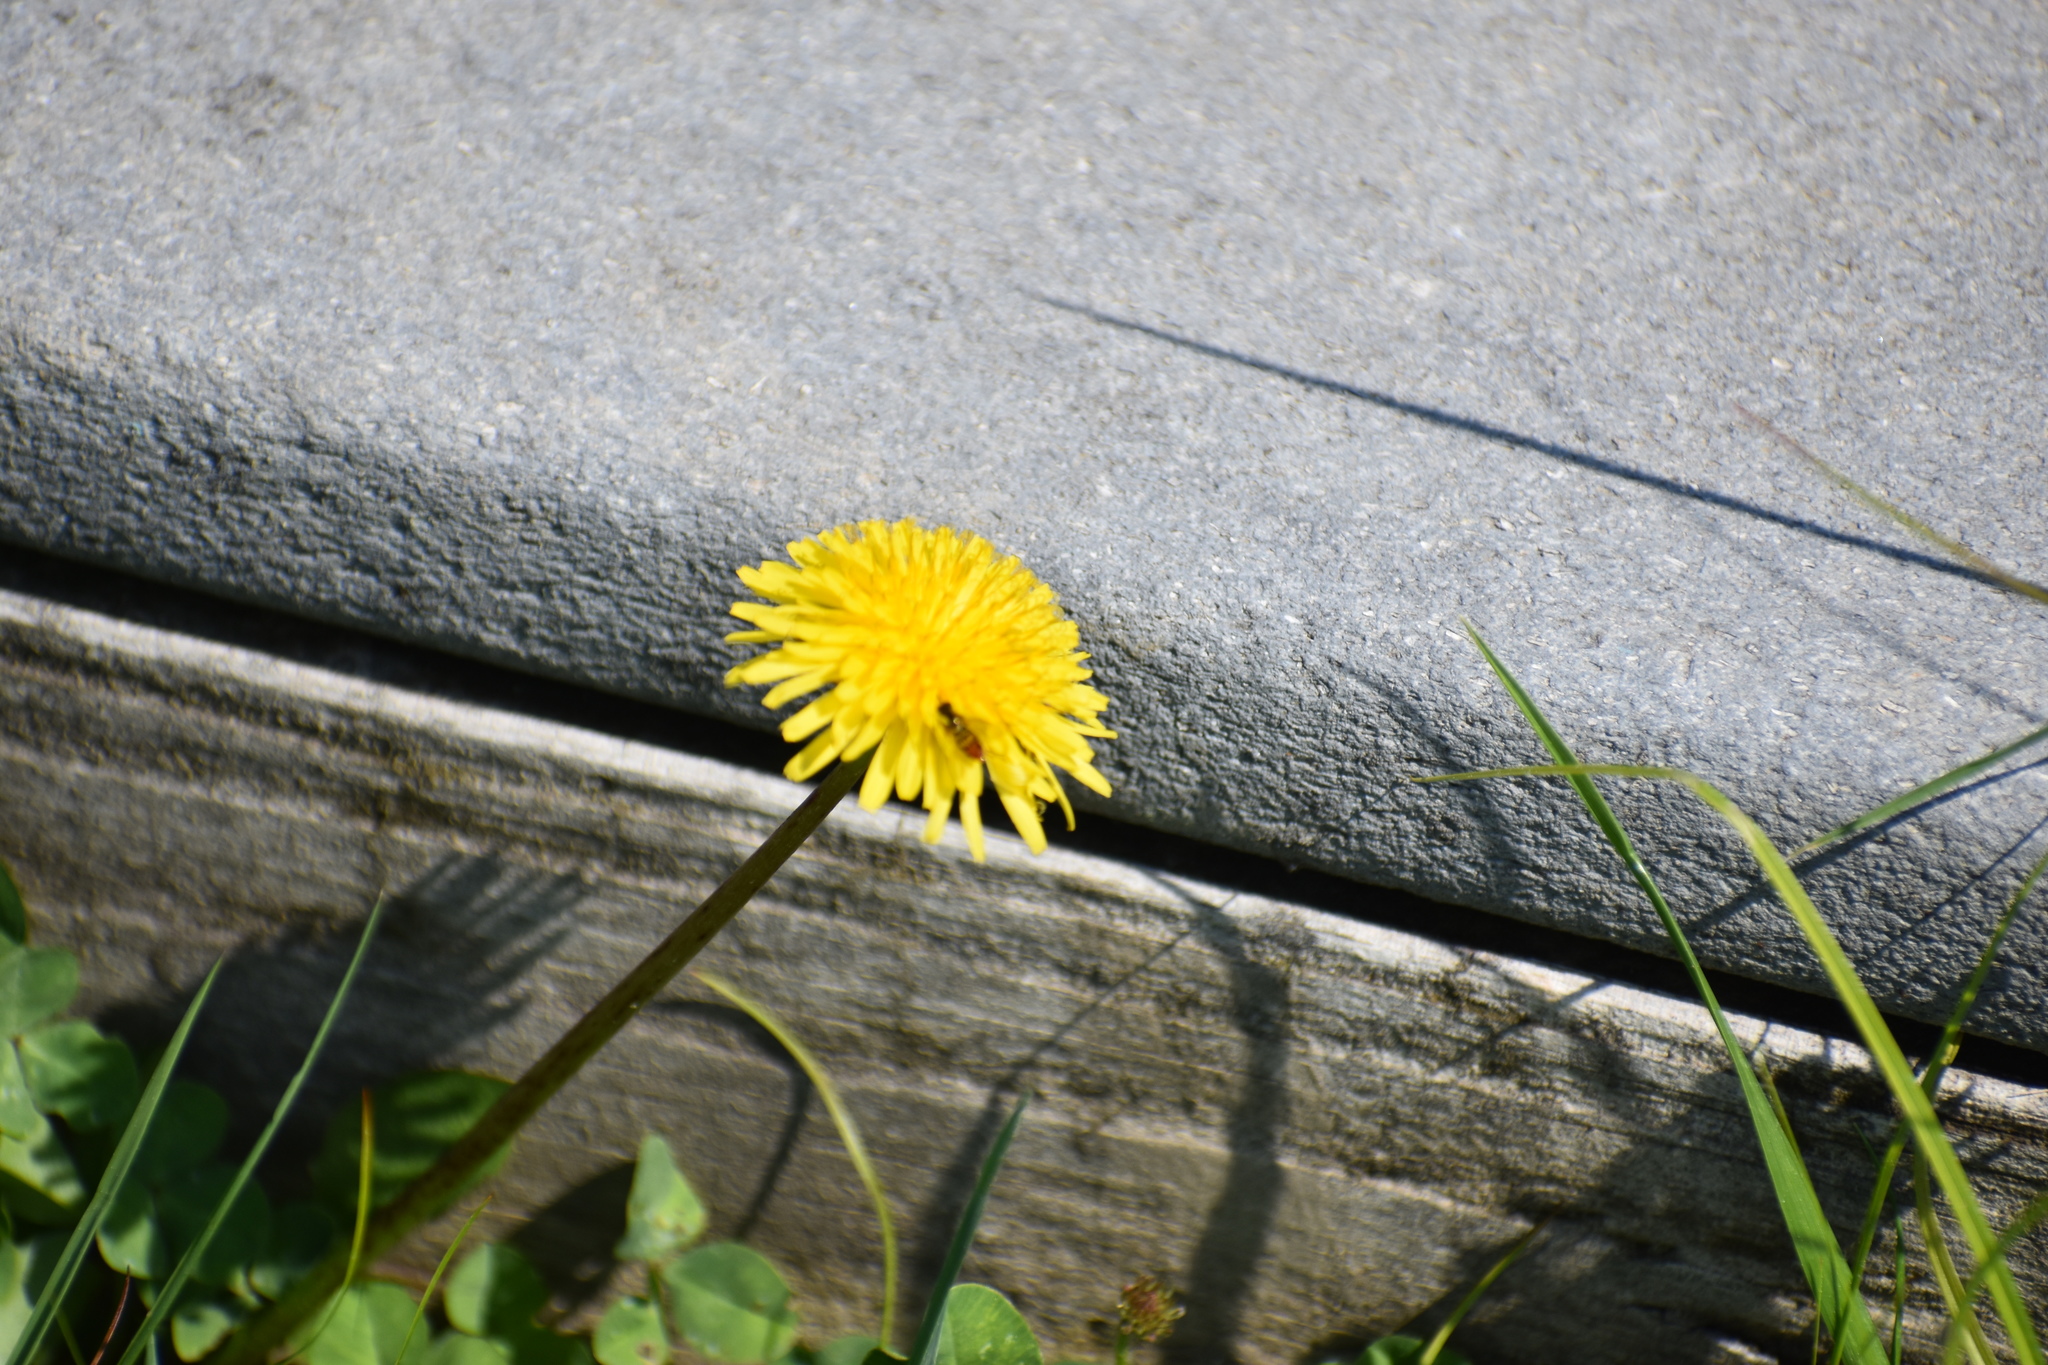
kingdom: Plantae
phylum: Tracheophyta
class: Magnoliopsida
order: Asterales
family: Asteraceae
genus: Taraxacum
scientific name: Taraxacum officinale
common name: Common dandelion
